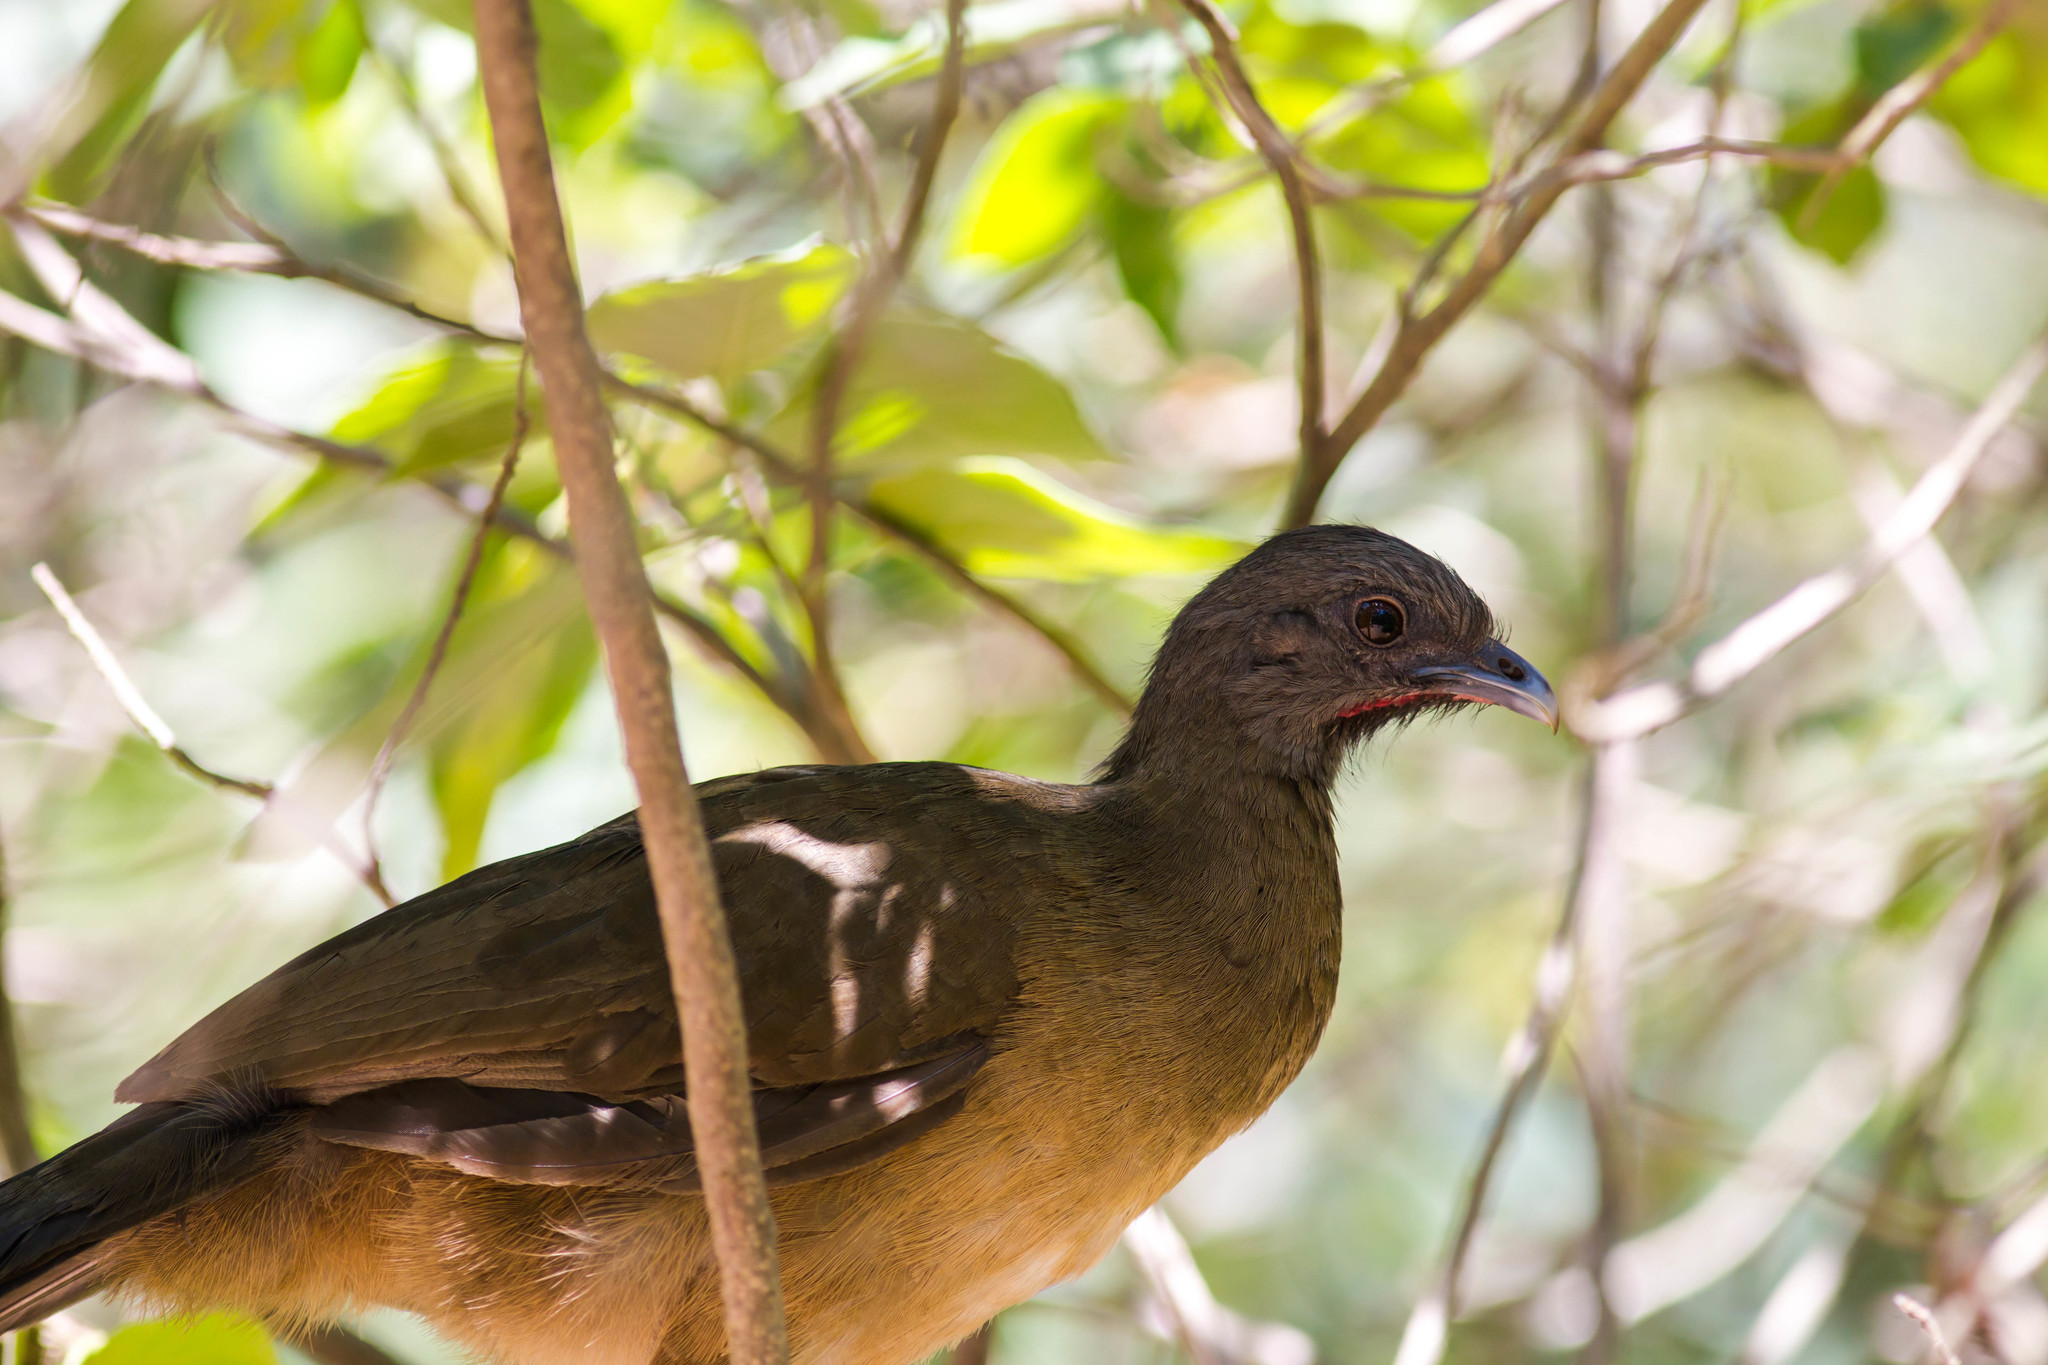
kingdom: Animalia
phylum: Chordata
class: Aves
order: Galliformes
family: Cracidae
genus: Ortalis
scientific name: Ortalis vetula
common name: Plain chachalaca
